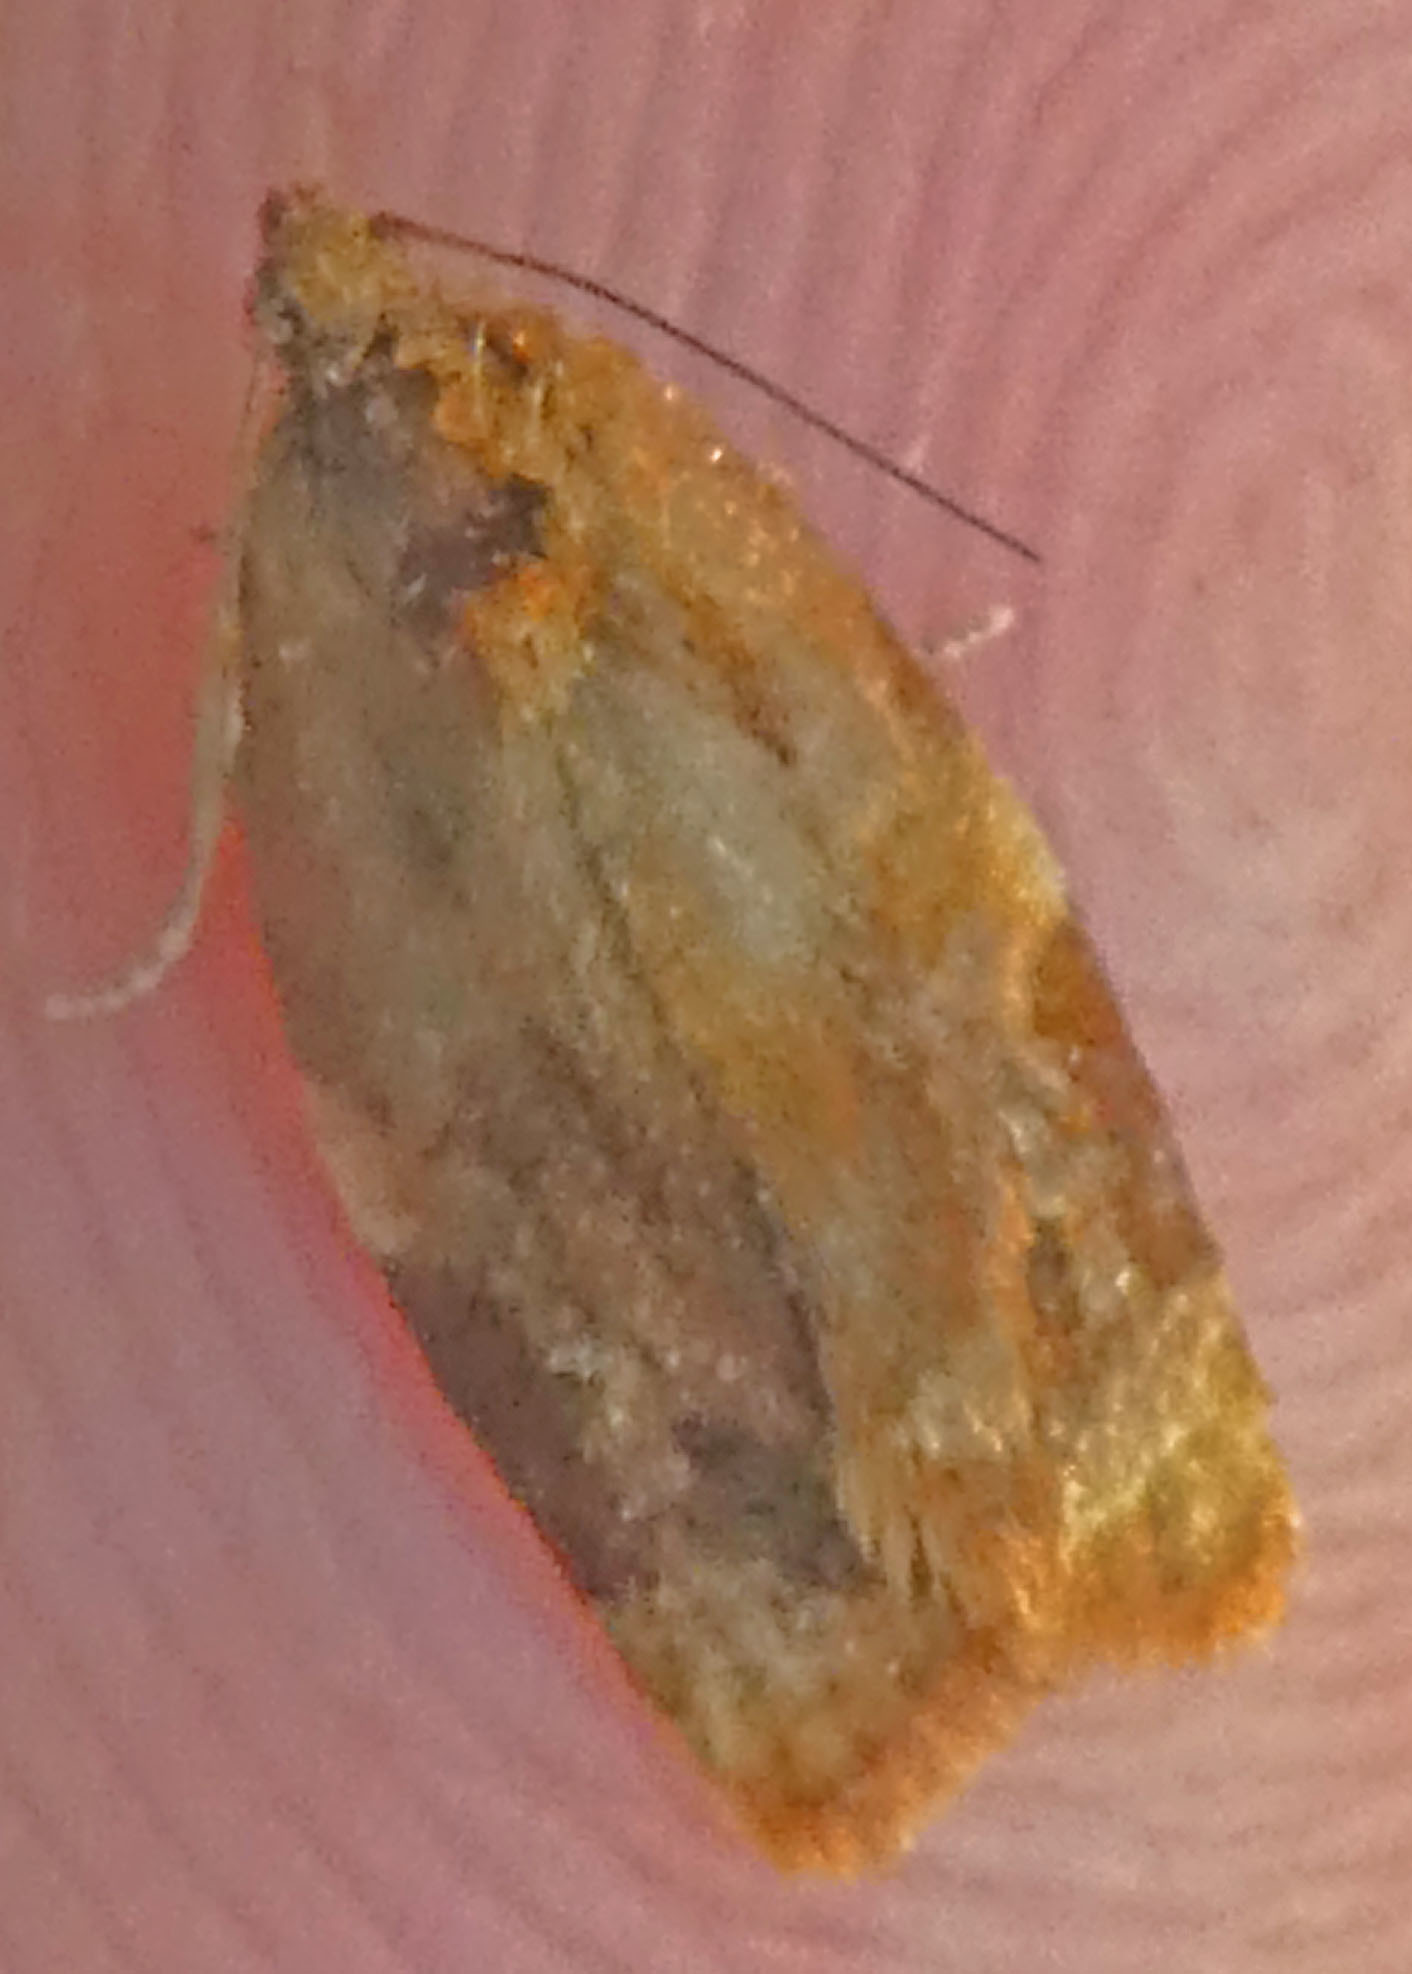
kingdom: Animalia
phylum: Arthropoda
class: Insecta
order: Lepidoptera
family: Tortricidae
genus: Ditula
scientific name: Ditula angustiorana
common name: Red-barred tortrix
